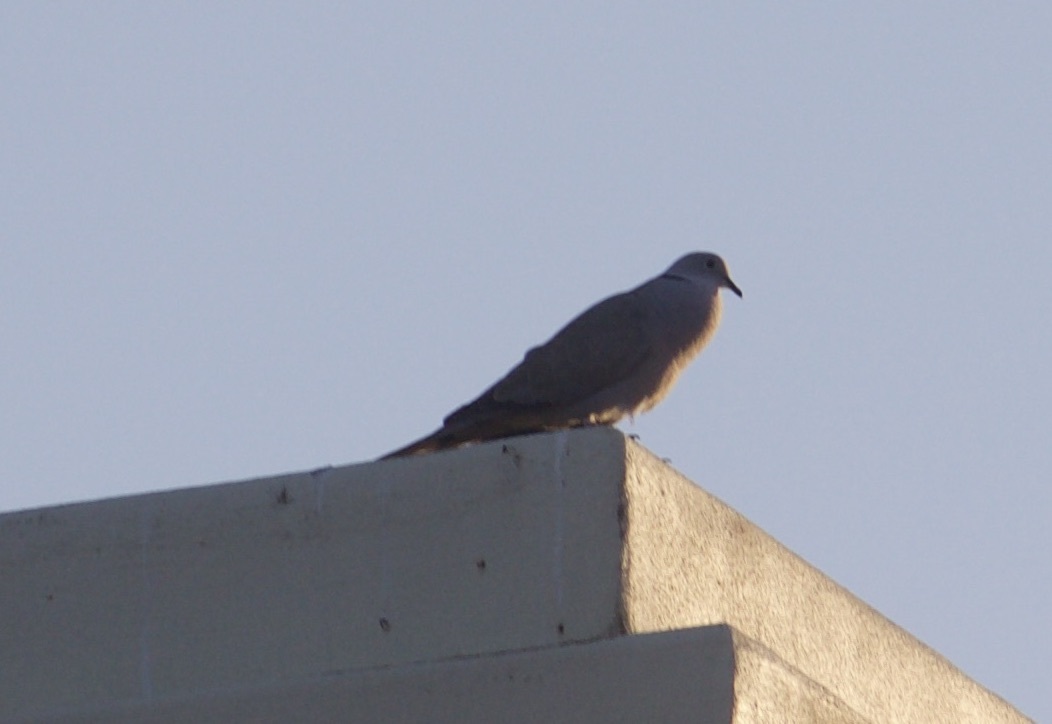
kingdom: Animalia
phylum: Chordata
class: Aves
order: Columbiformes
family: Columbidae
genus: Streptopelia
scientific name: Streptopelia decaocto
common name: Eurasian collared dove
